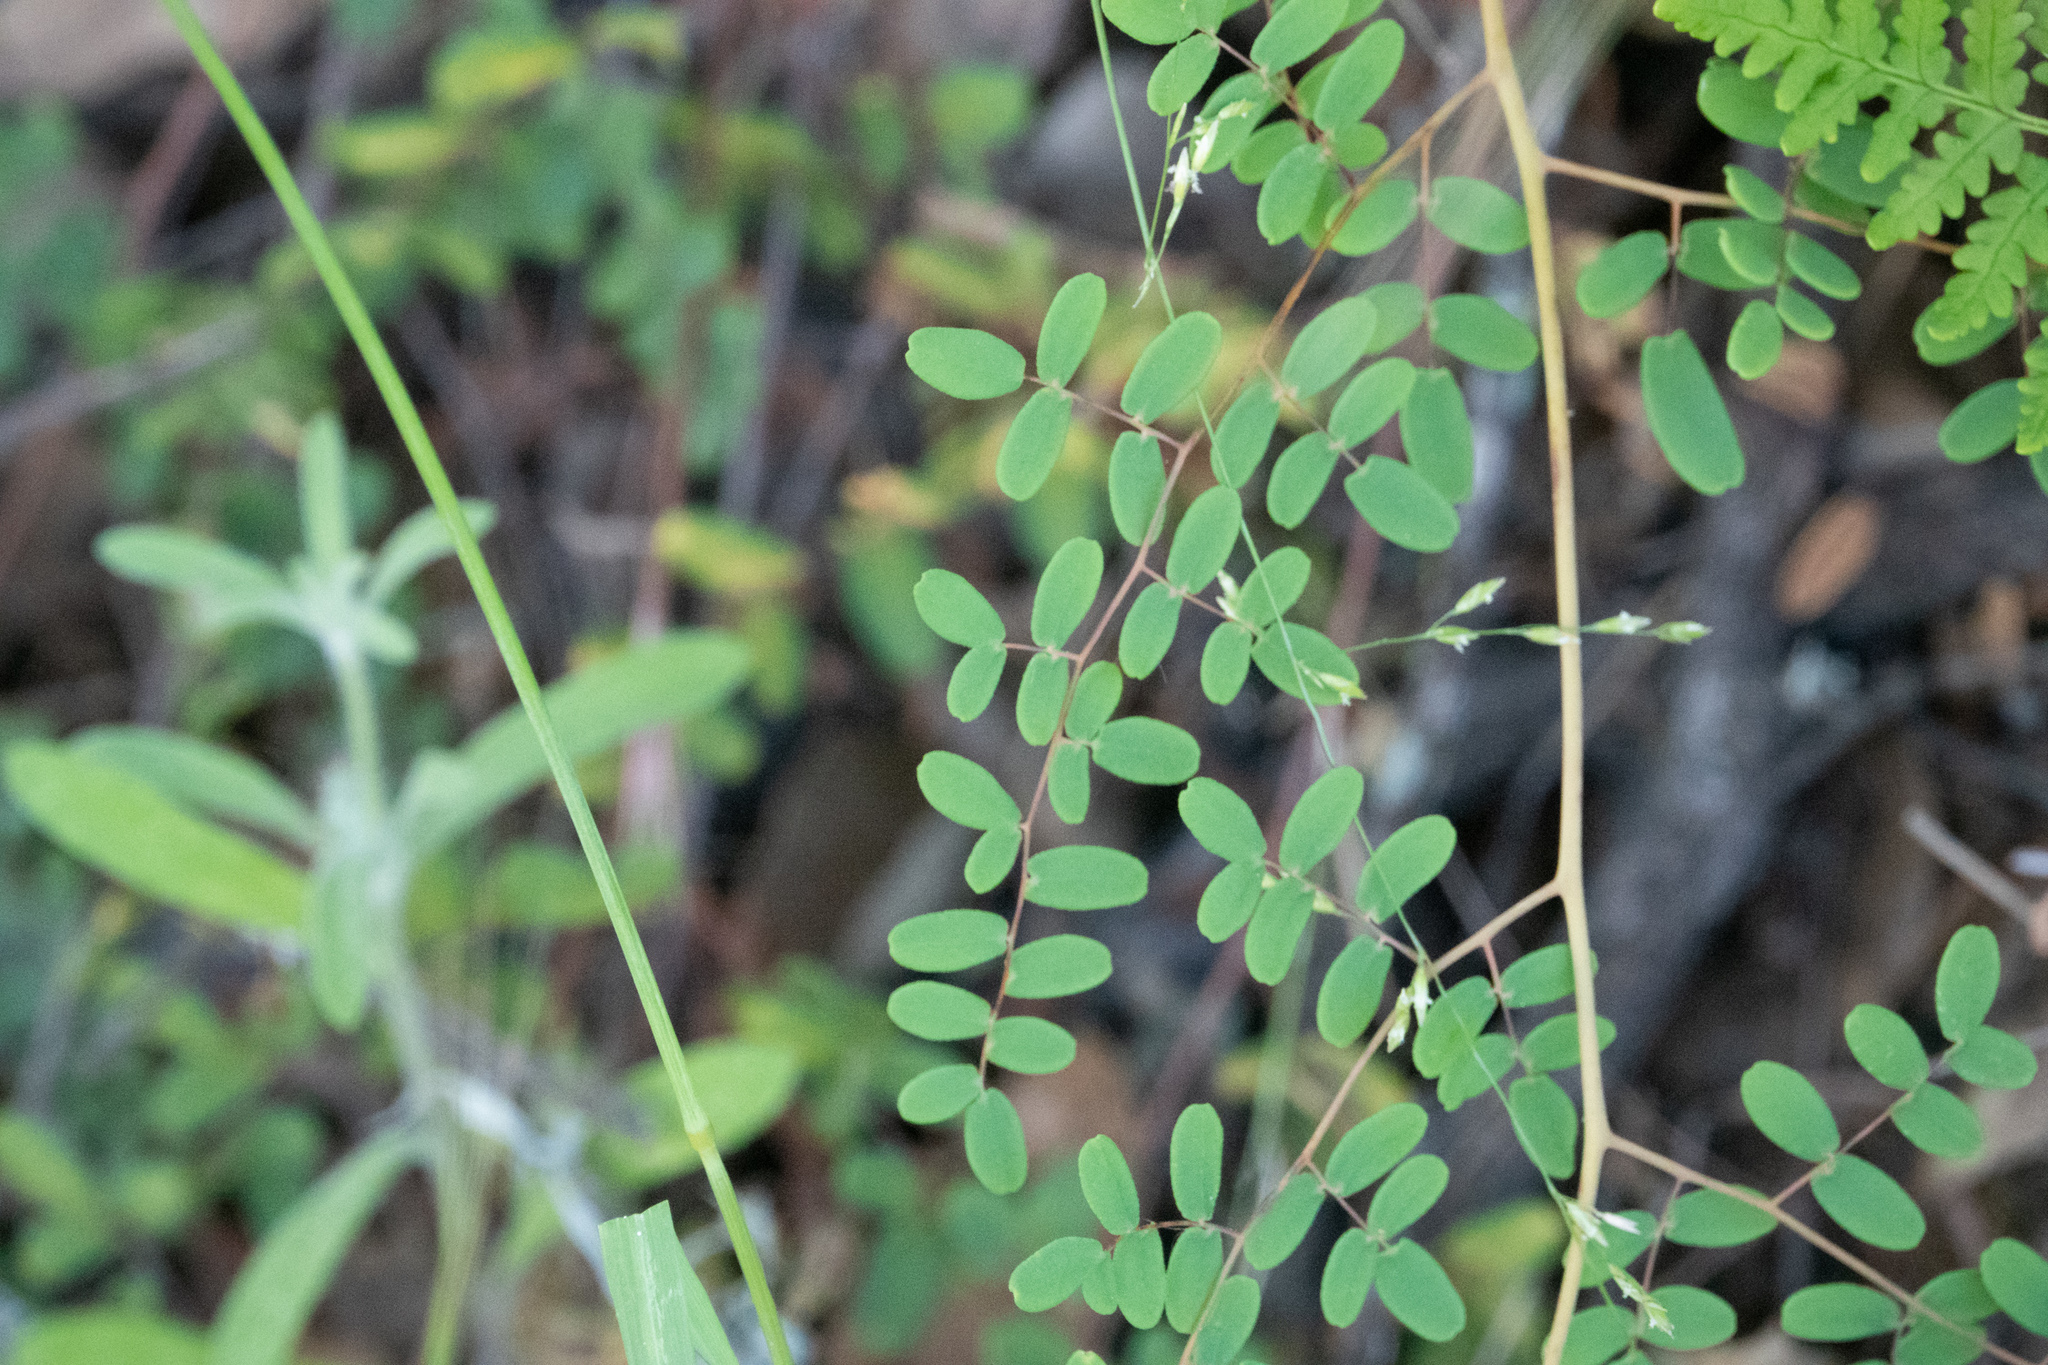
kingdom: Plantae
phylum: Tracheophyta
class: Polypodiopsida
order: Polypodiales
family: Pteridaceae
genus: Pellaea
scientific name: Pellaea andromedifolia
